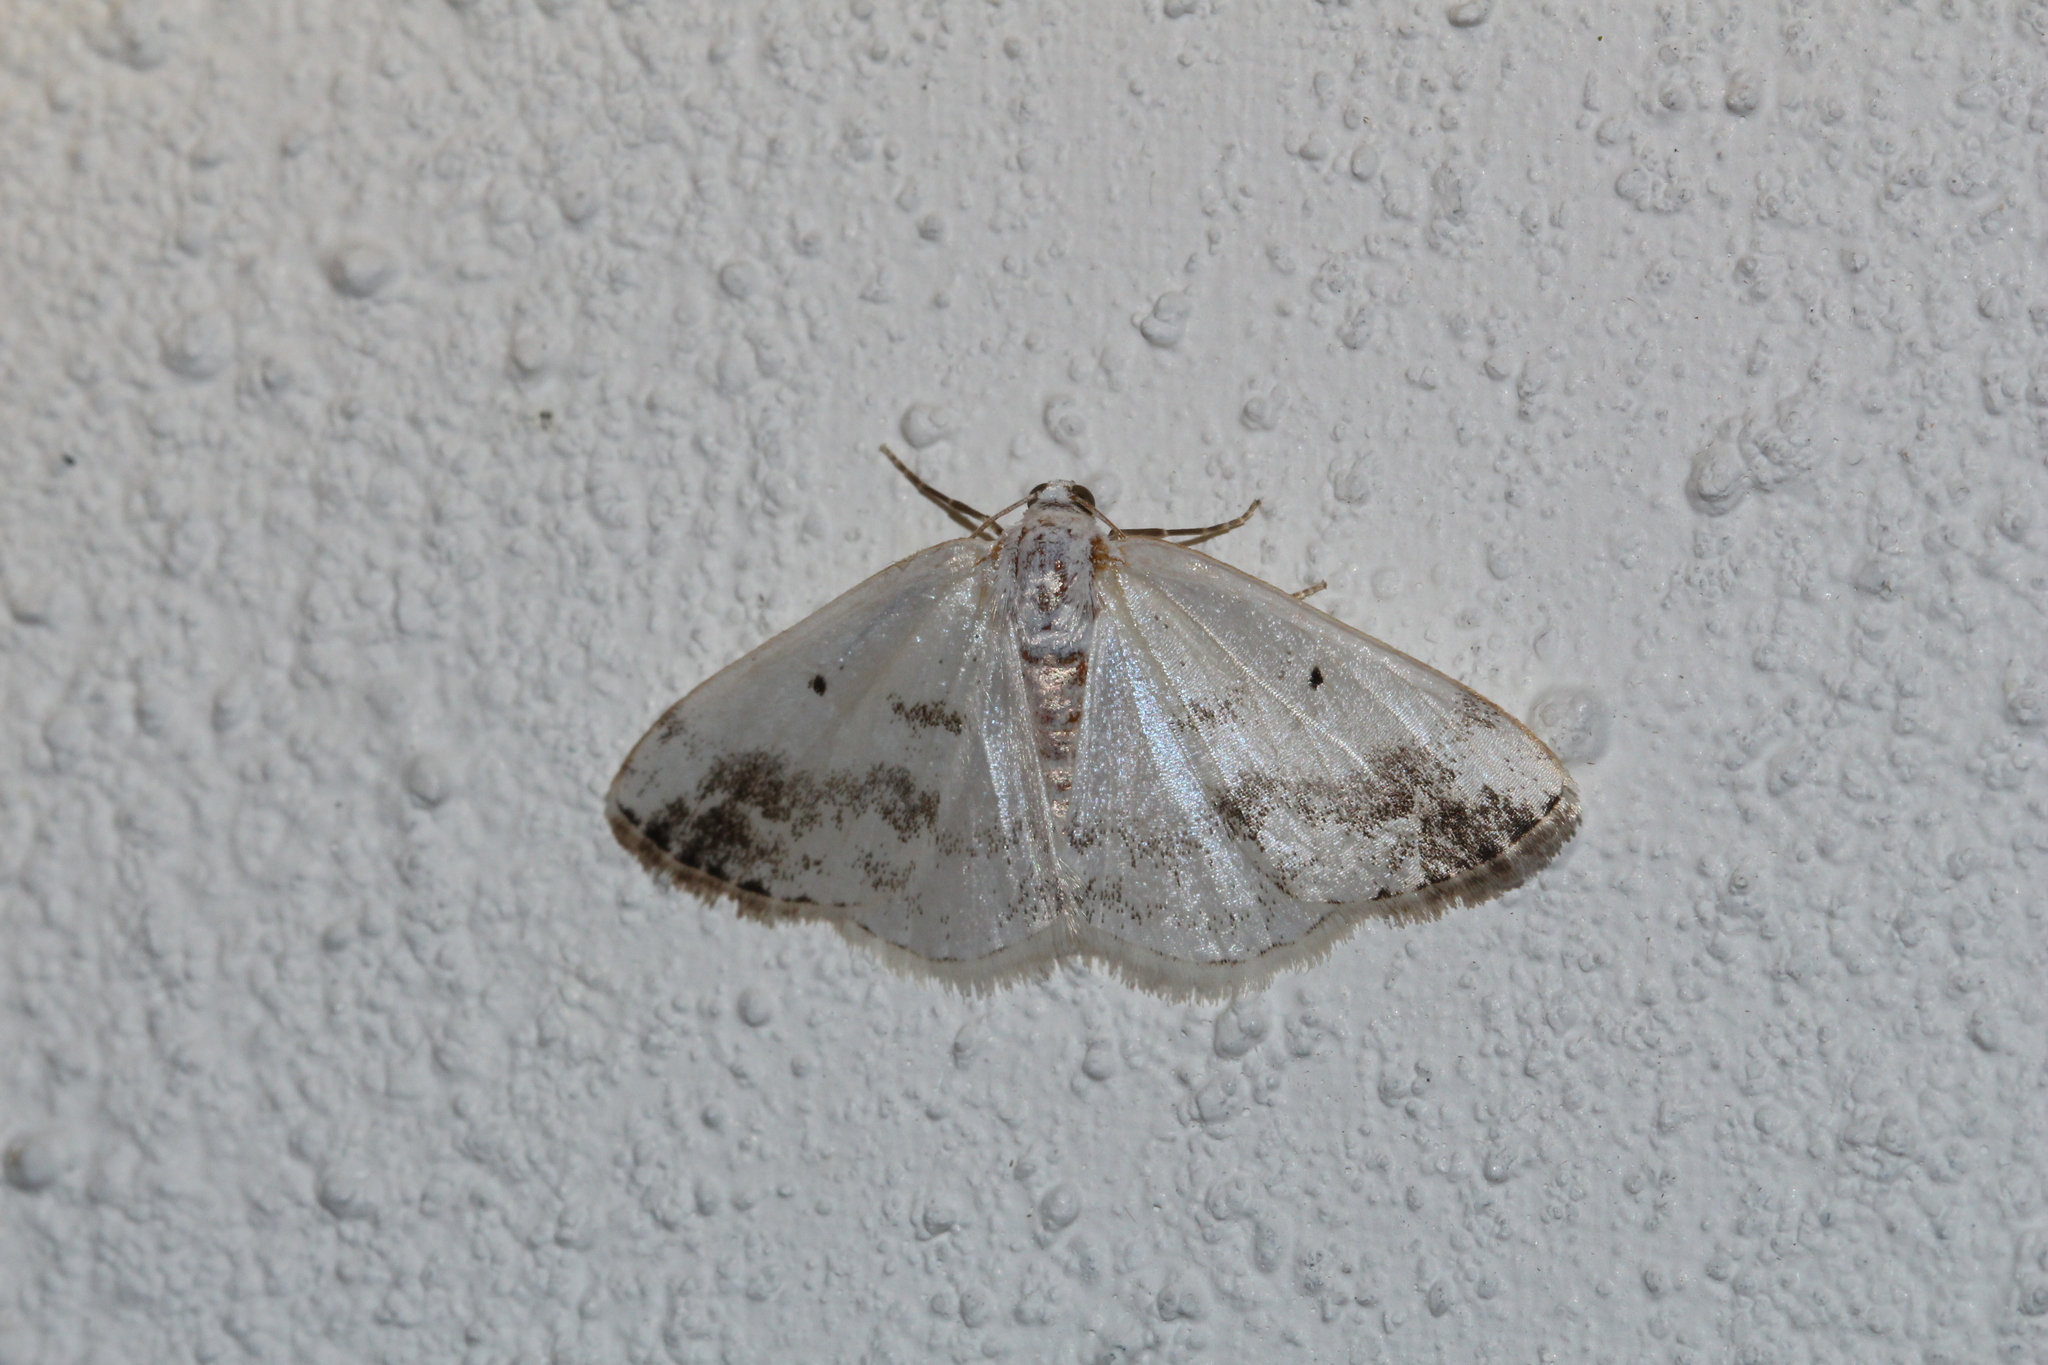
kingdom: Animalia
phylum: Arthropoda
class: Insecta
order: Lepidoptera
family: Geometridae
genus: Lomographa
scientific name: Lomographa temerata
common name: Clouded silver
